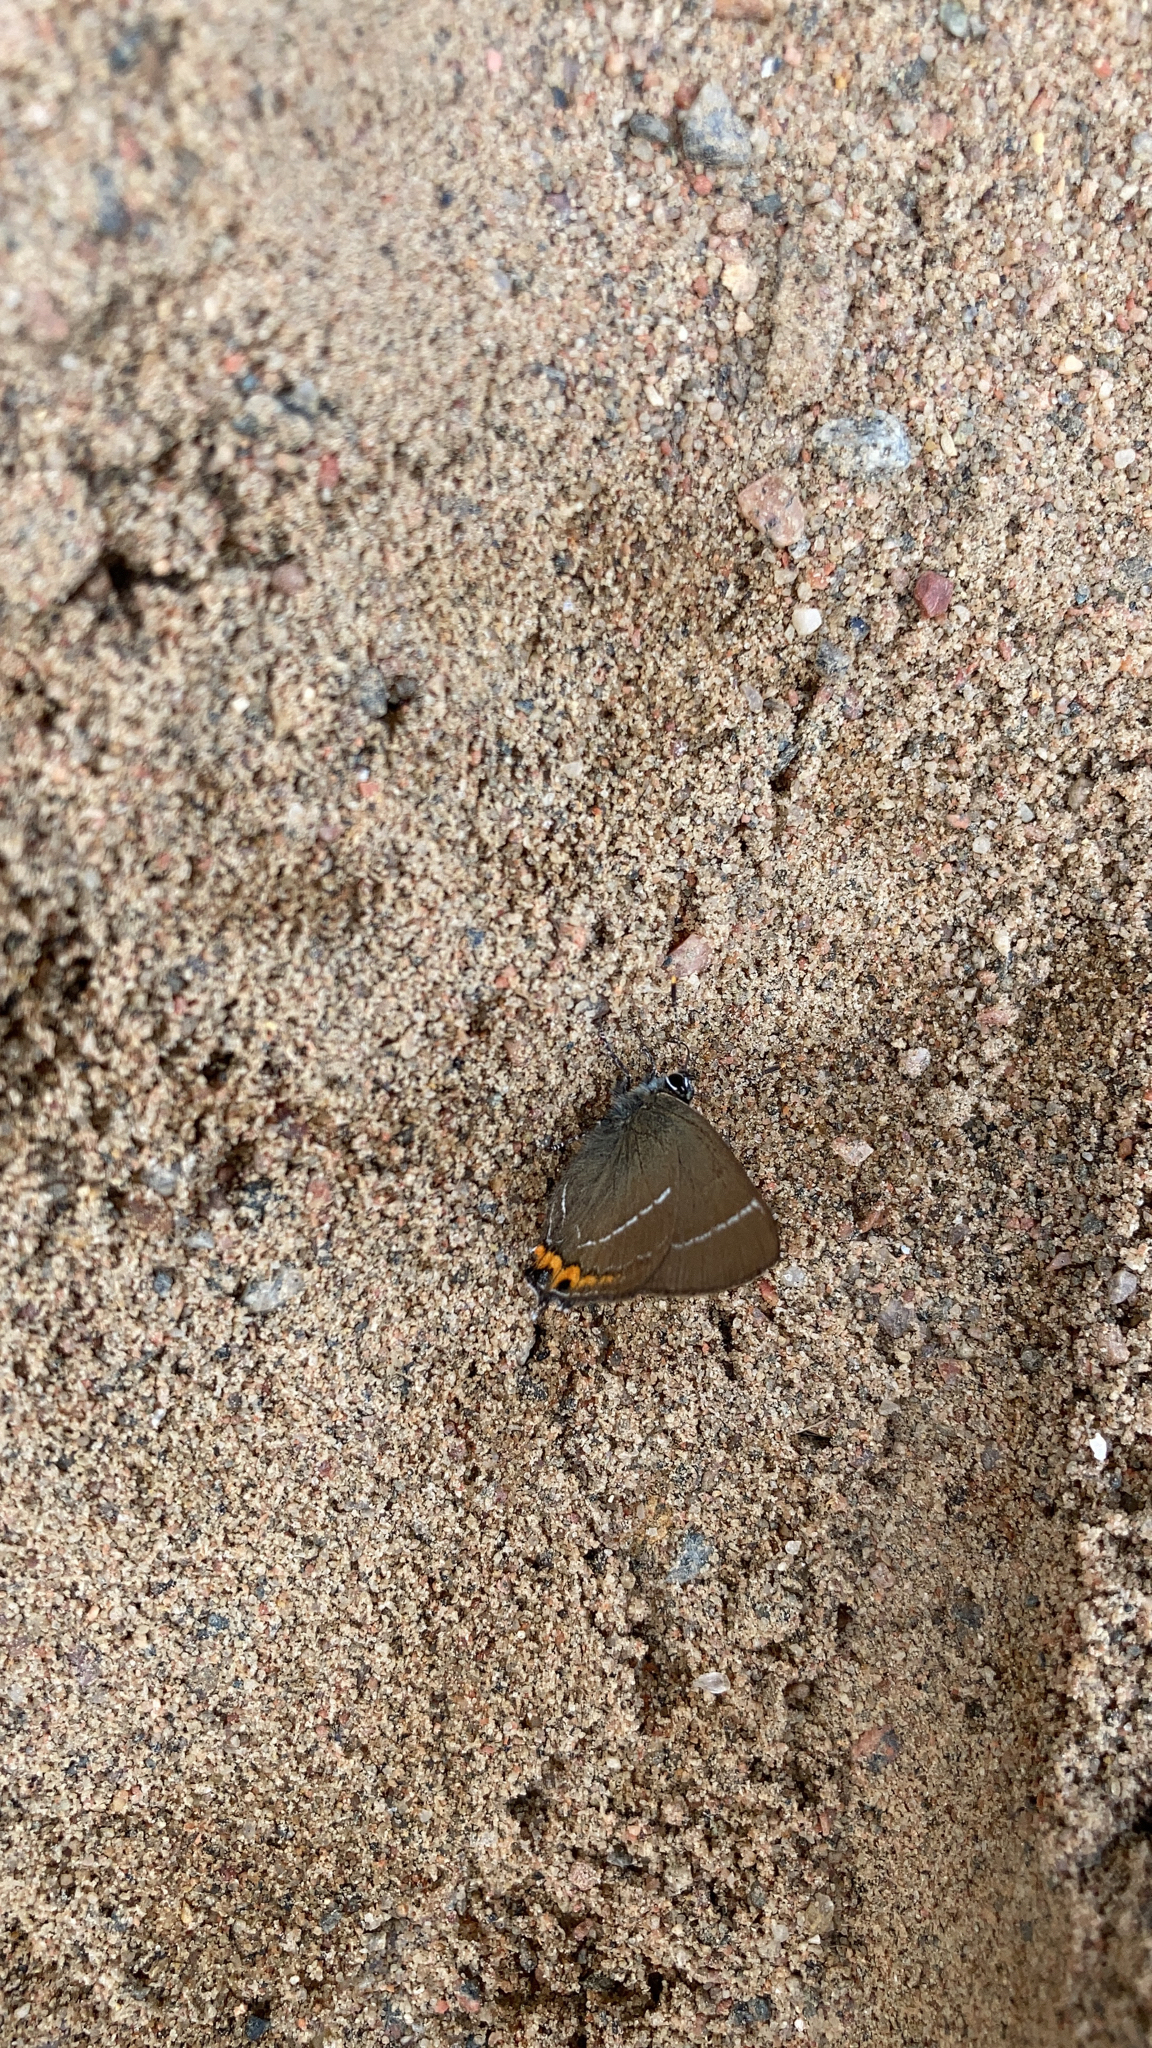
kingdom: Animalia
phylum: Arthropoda
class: Insecta
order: Lepidoptera
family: Lycaenidae
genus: Satyrium
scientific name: Satyrium w-album
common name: White-letter hairstreak
